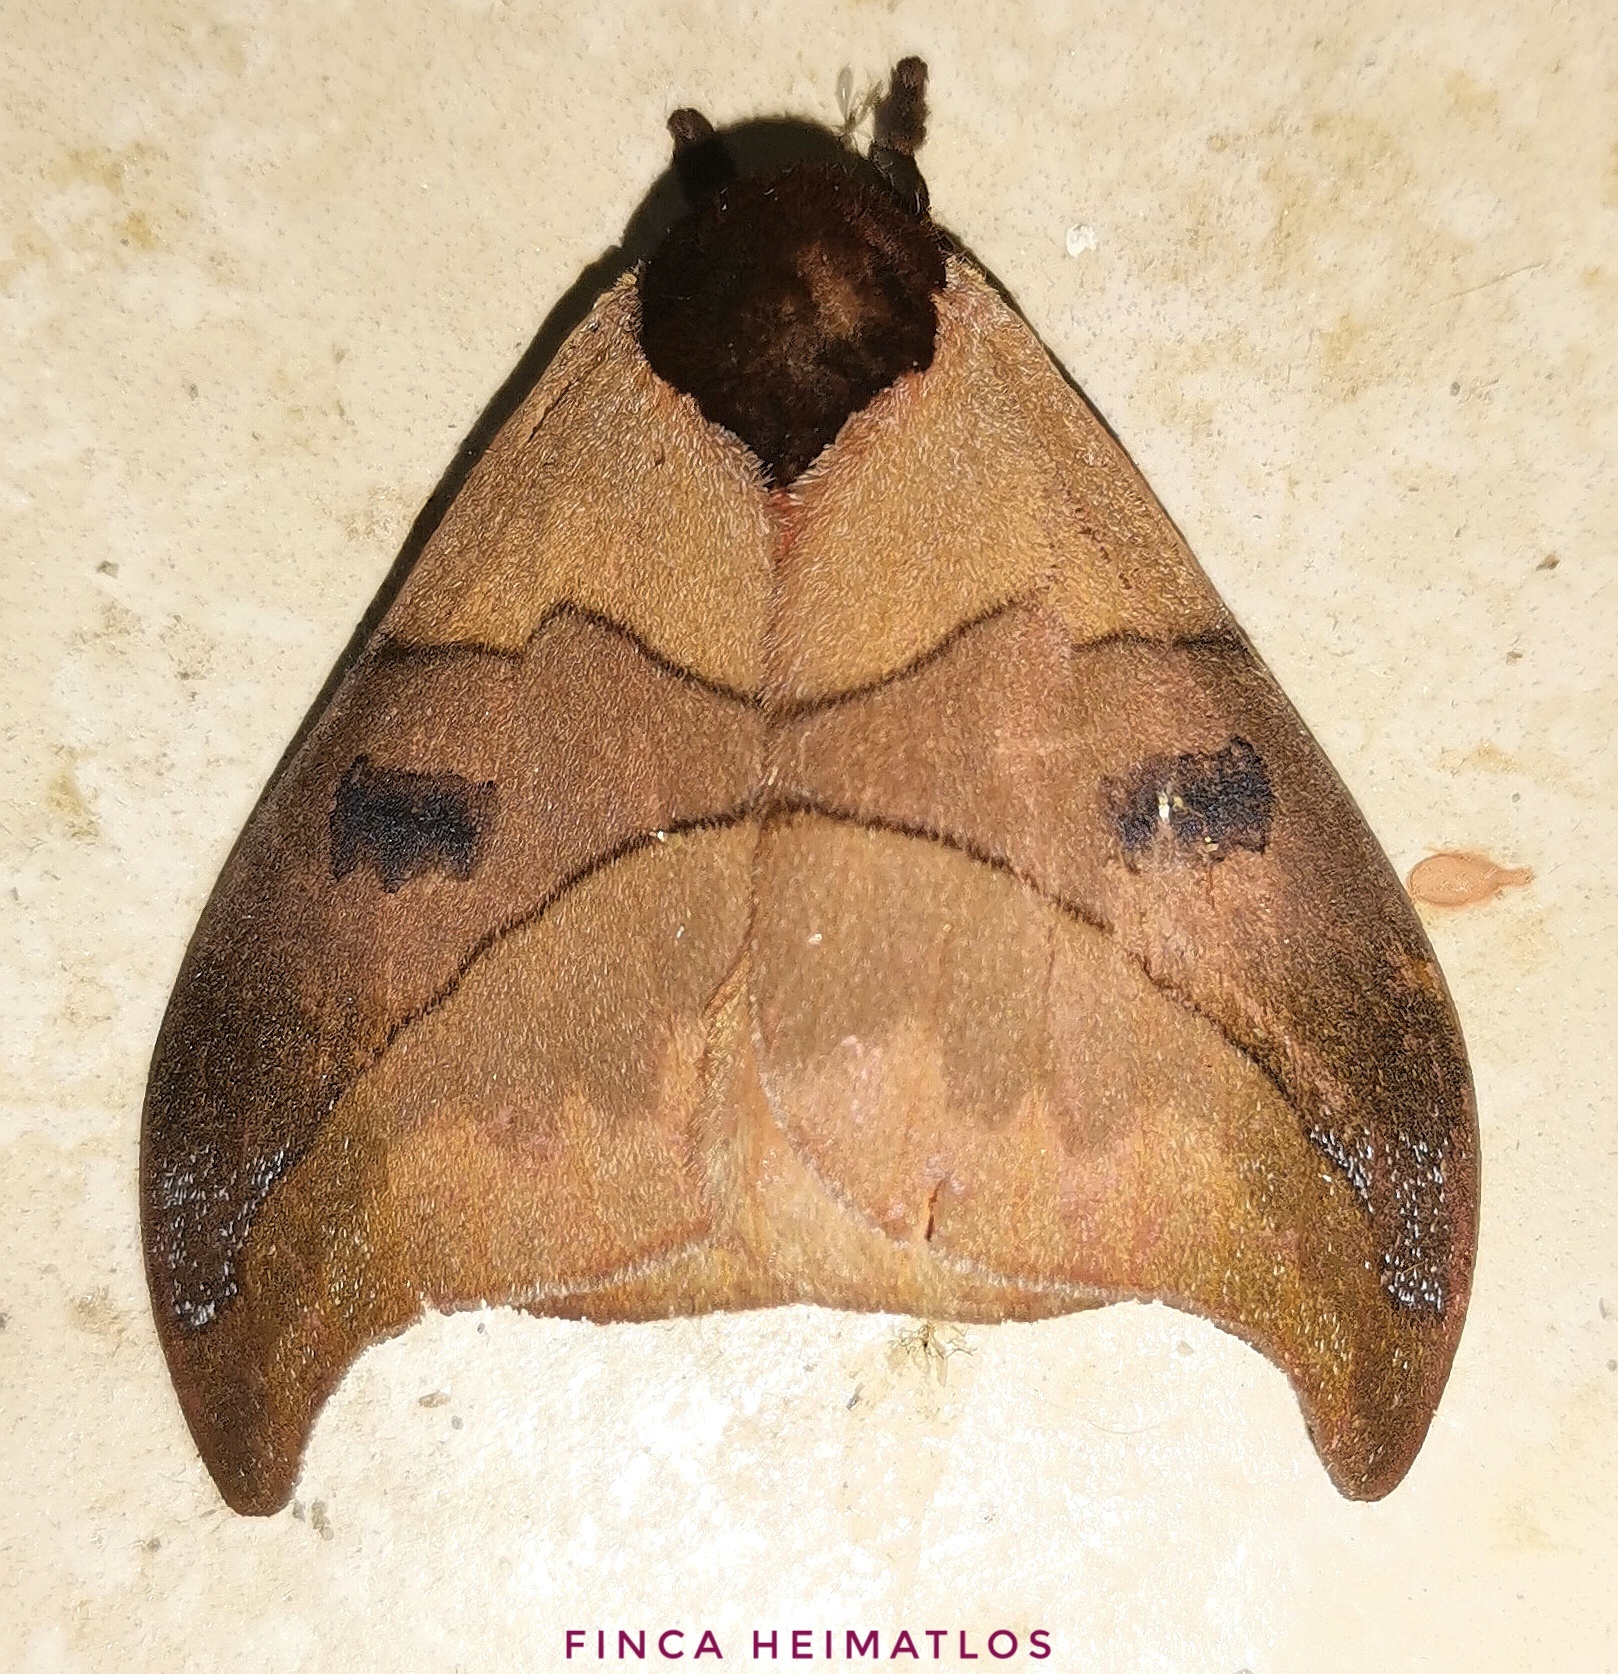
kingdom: Animalia
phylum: Arthropoda
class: Insecta
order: Lepidoptera
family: Saturniidae
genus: Automeris
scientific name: Automeris hamata
